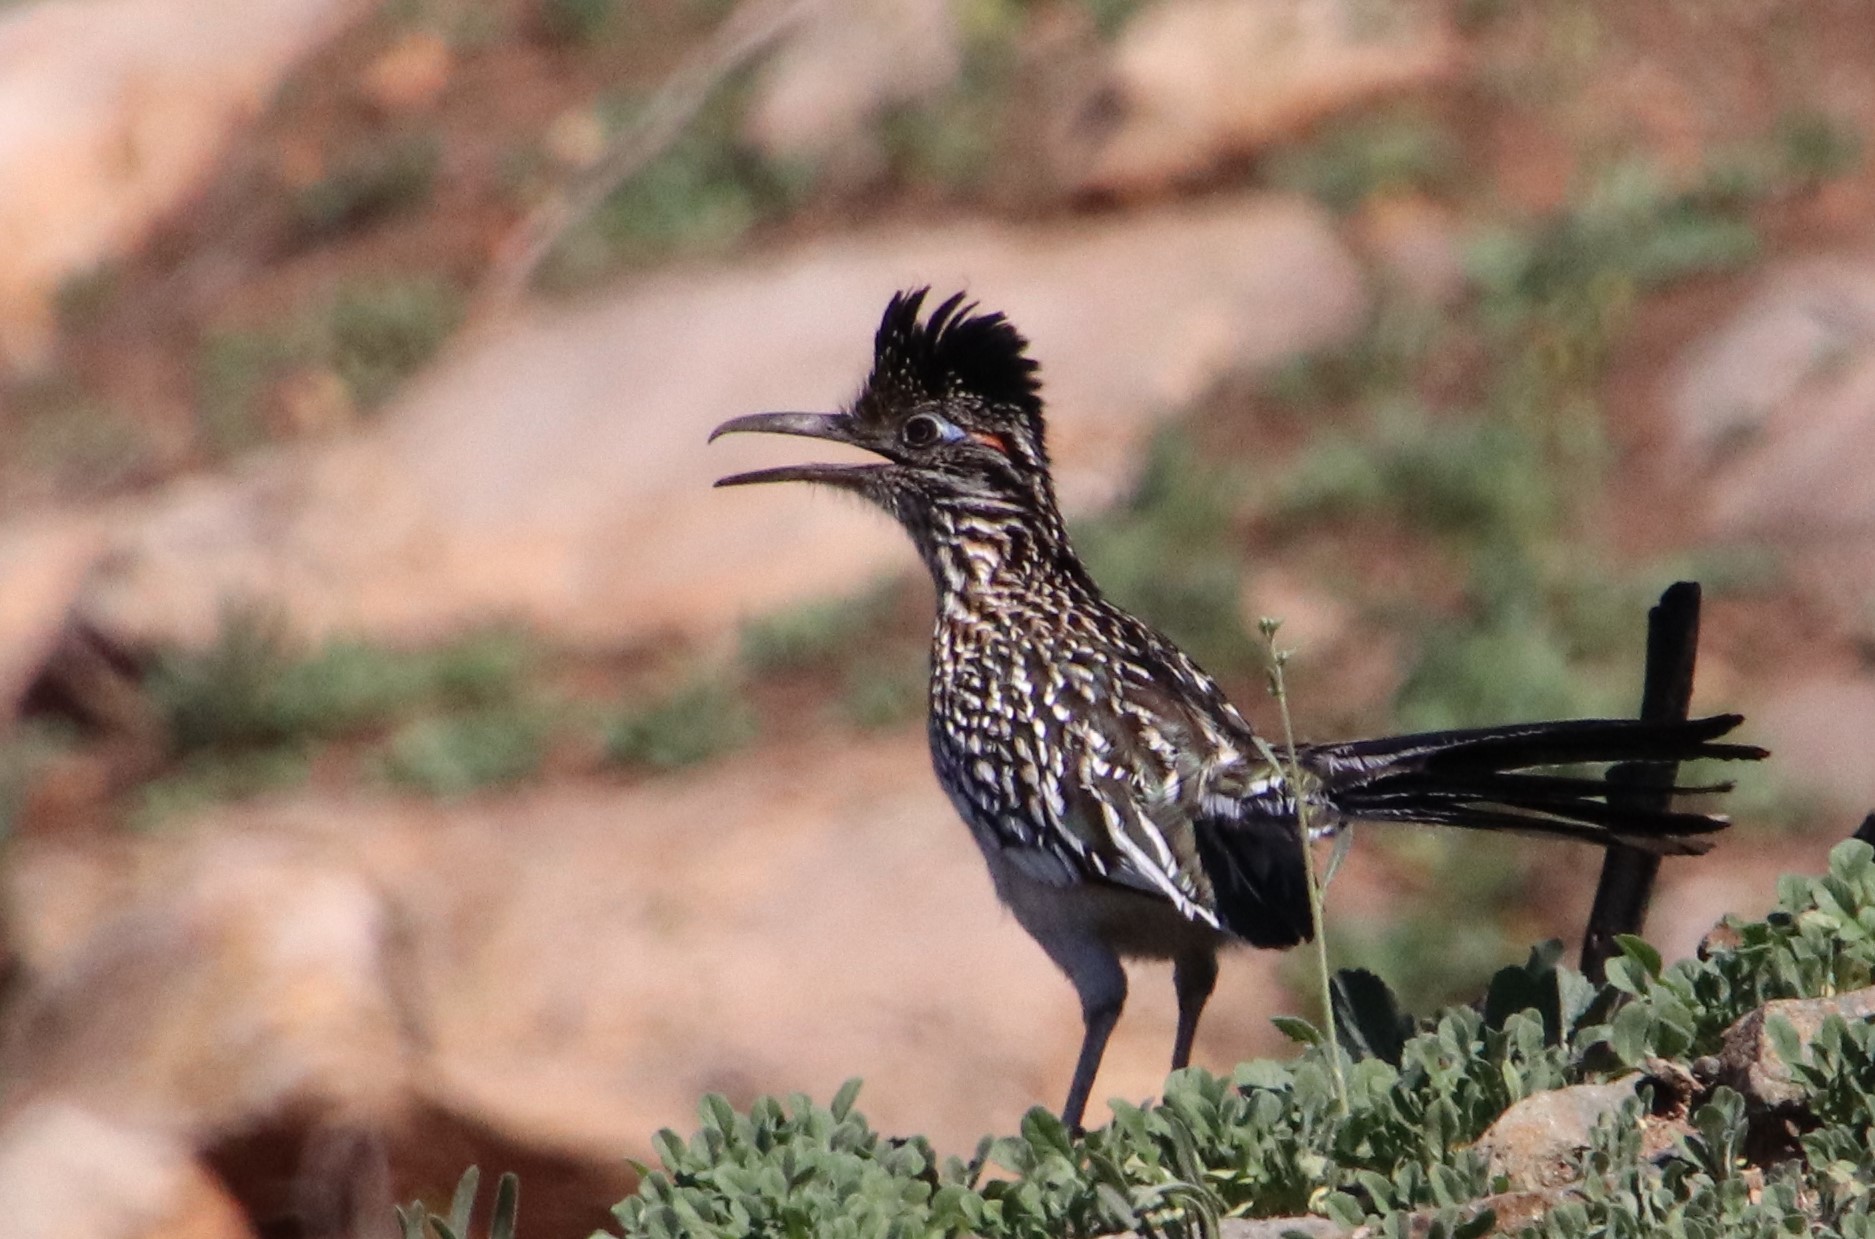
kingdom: Animalia
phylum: Chordata
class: Aves
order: Cuculiformes
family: Cuculidae
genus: Geococcyx
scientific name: Geococcyx californianus
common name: Greater roadrunner
